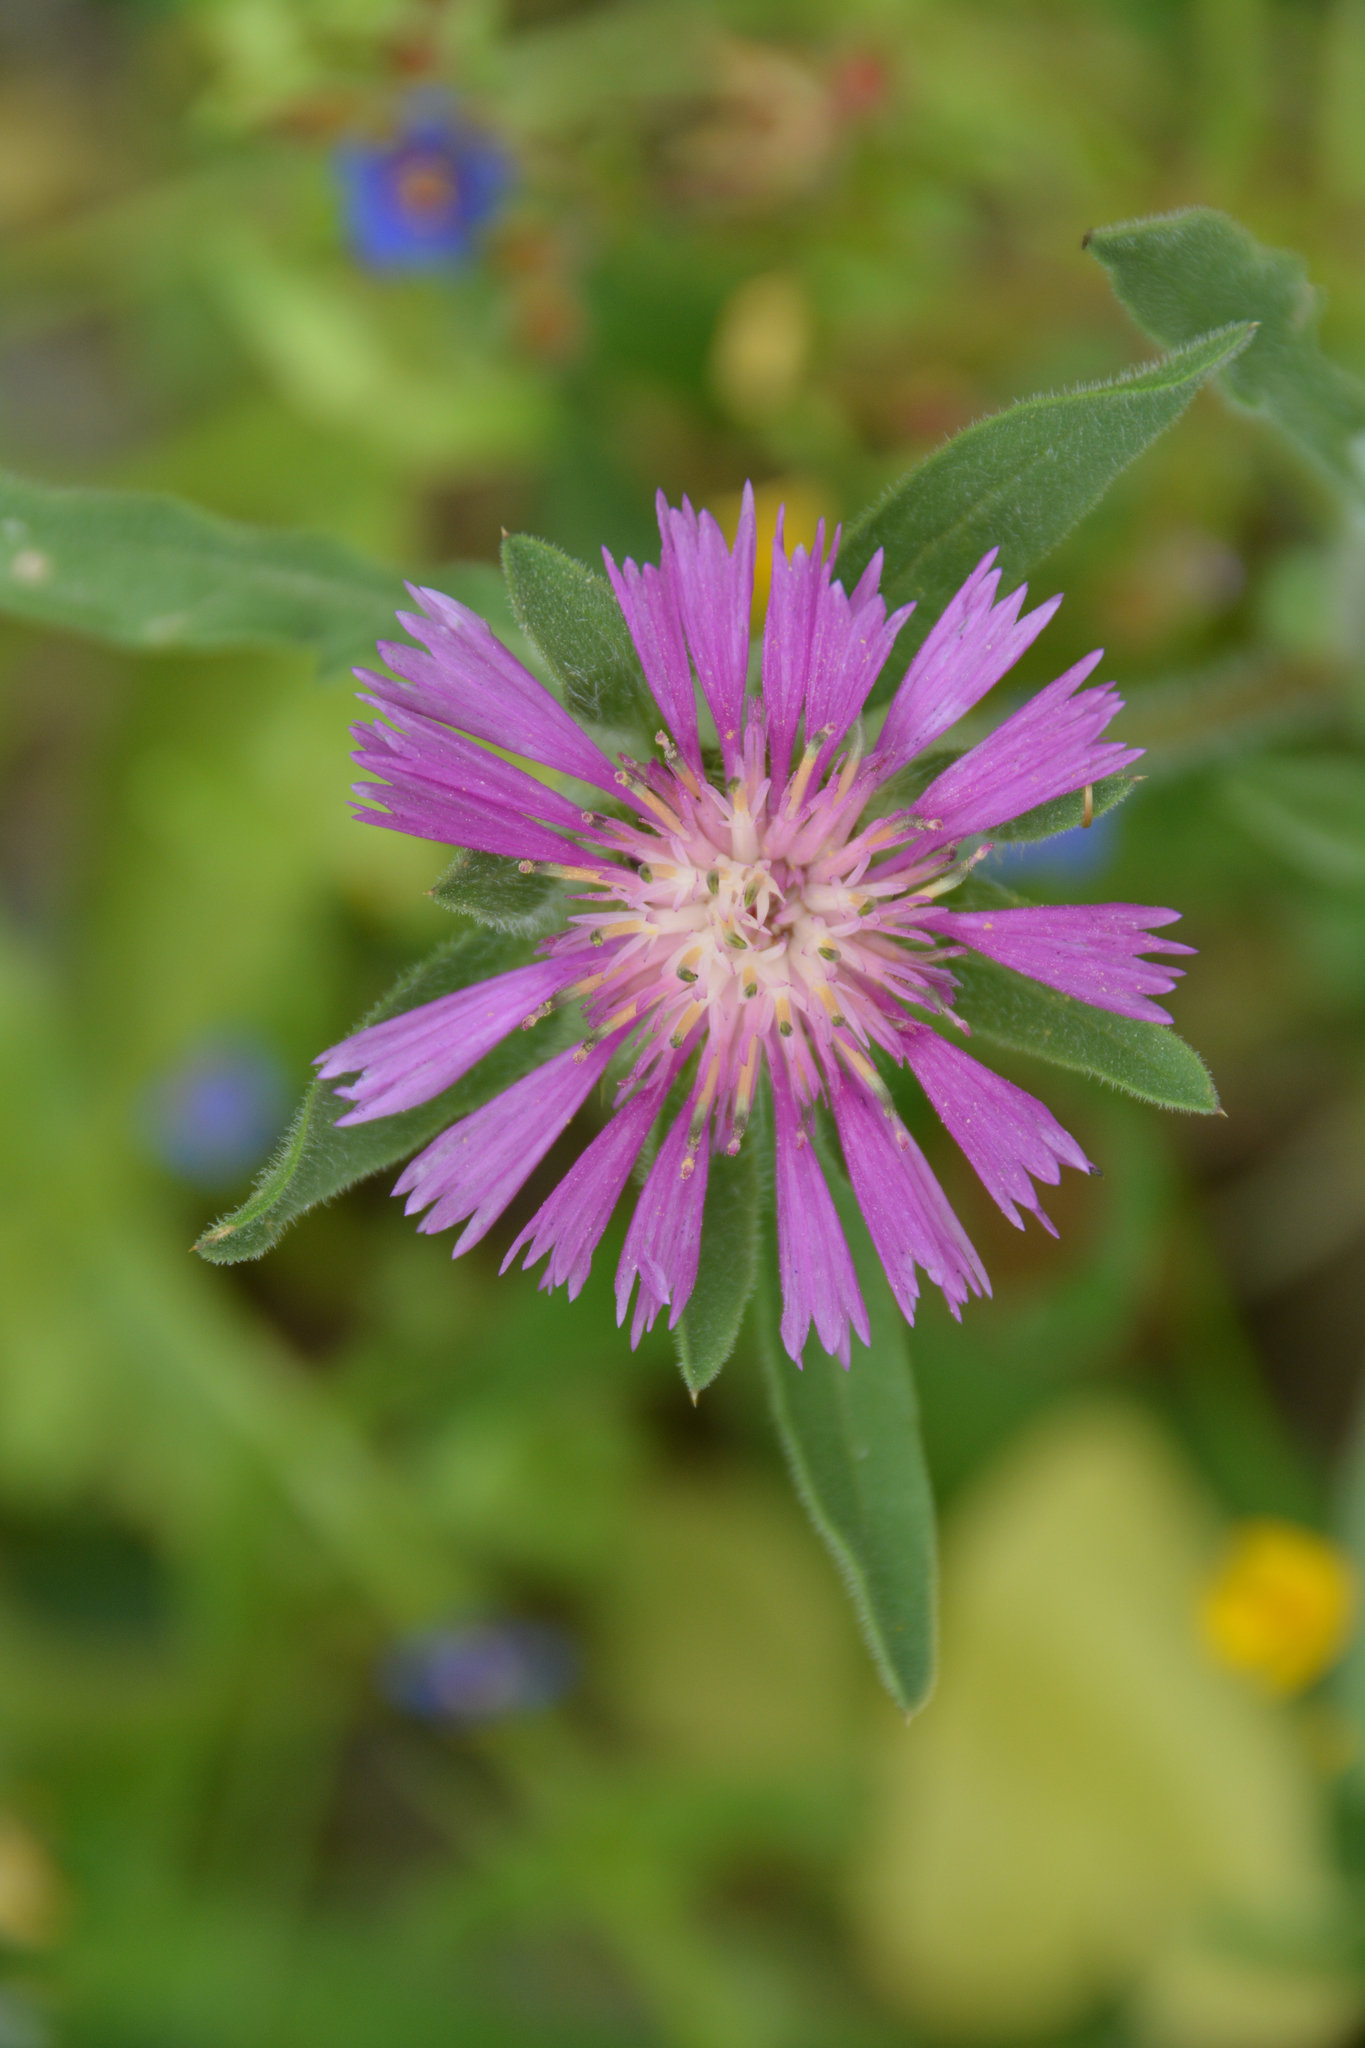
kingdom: Plantae
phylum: Tracheophyta
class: Magnoliopsida
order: Asterales
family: Asteraceae
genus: Centaurea
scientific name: Centaurea pullata
